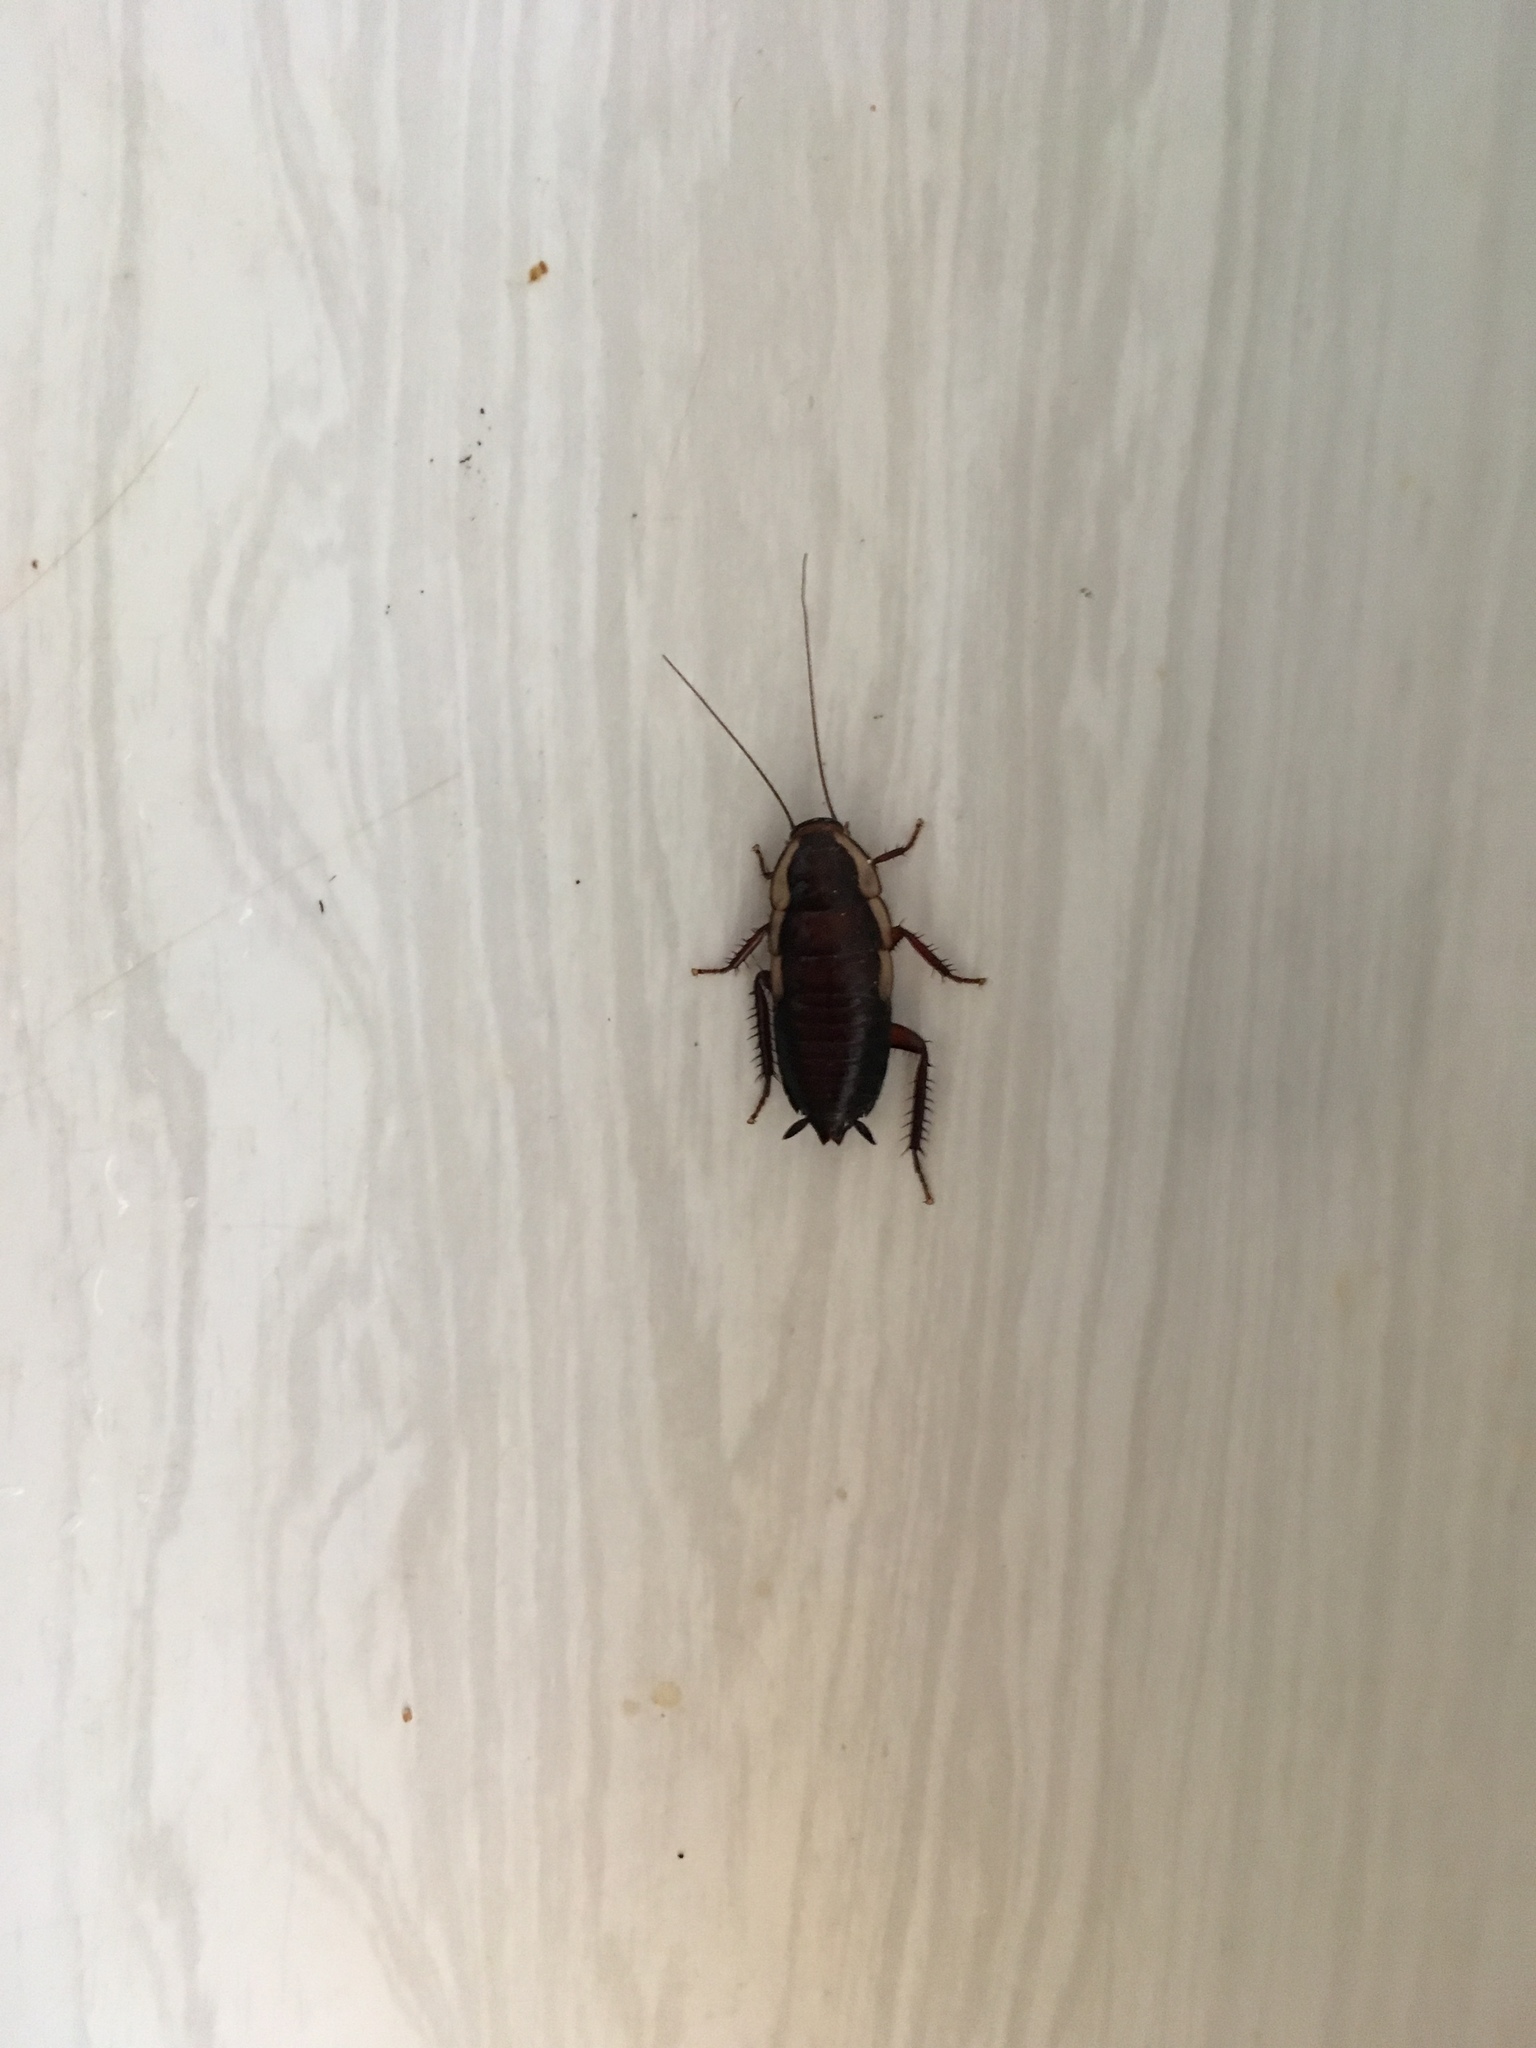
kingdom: Animalia
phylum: Arthropoda
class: Insecta
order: Blattodea
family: Blattidae
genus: Drymaplaneta
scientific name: Drymaplaneta semivitta
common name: Gisborne cockroach
